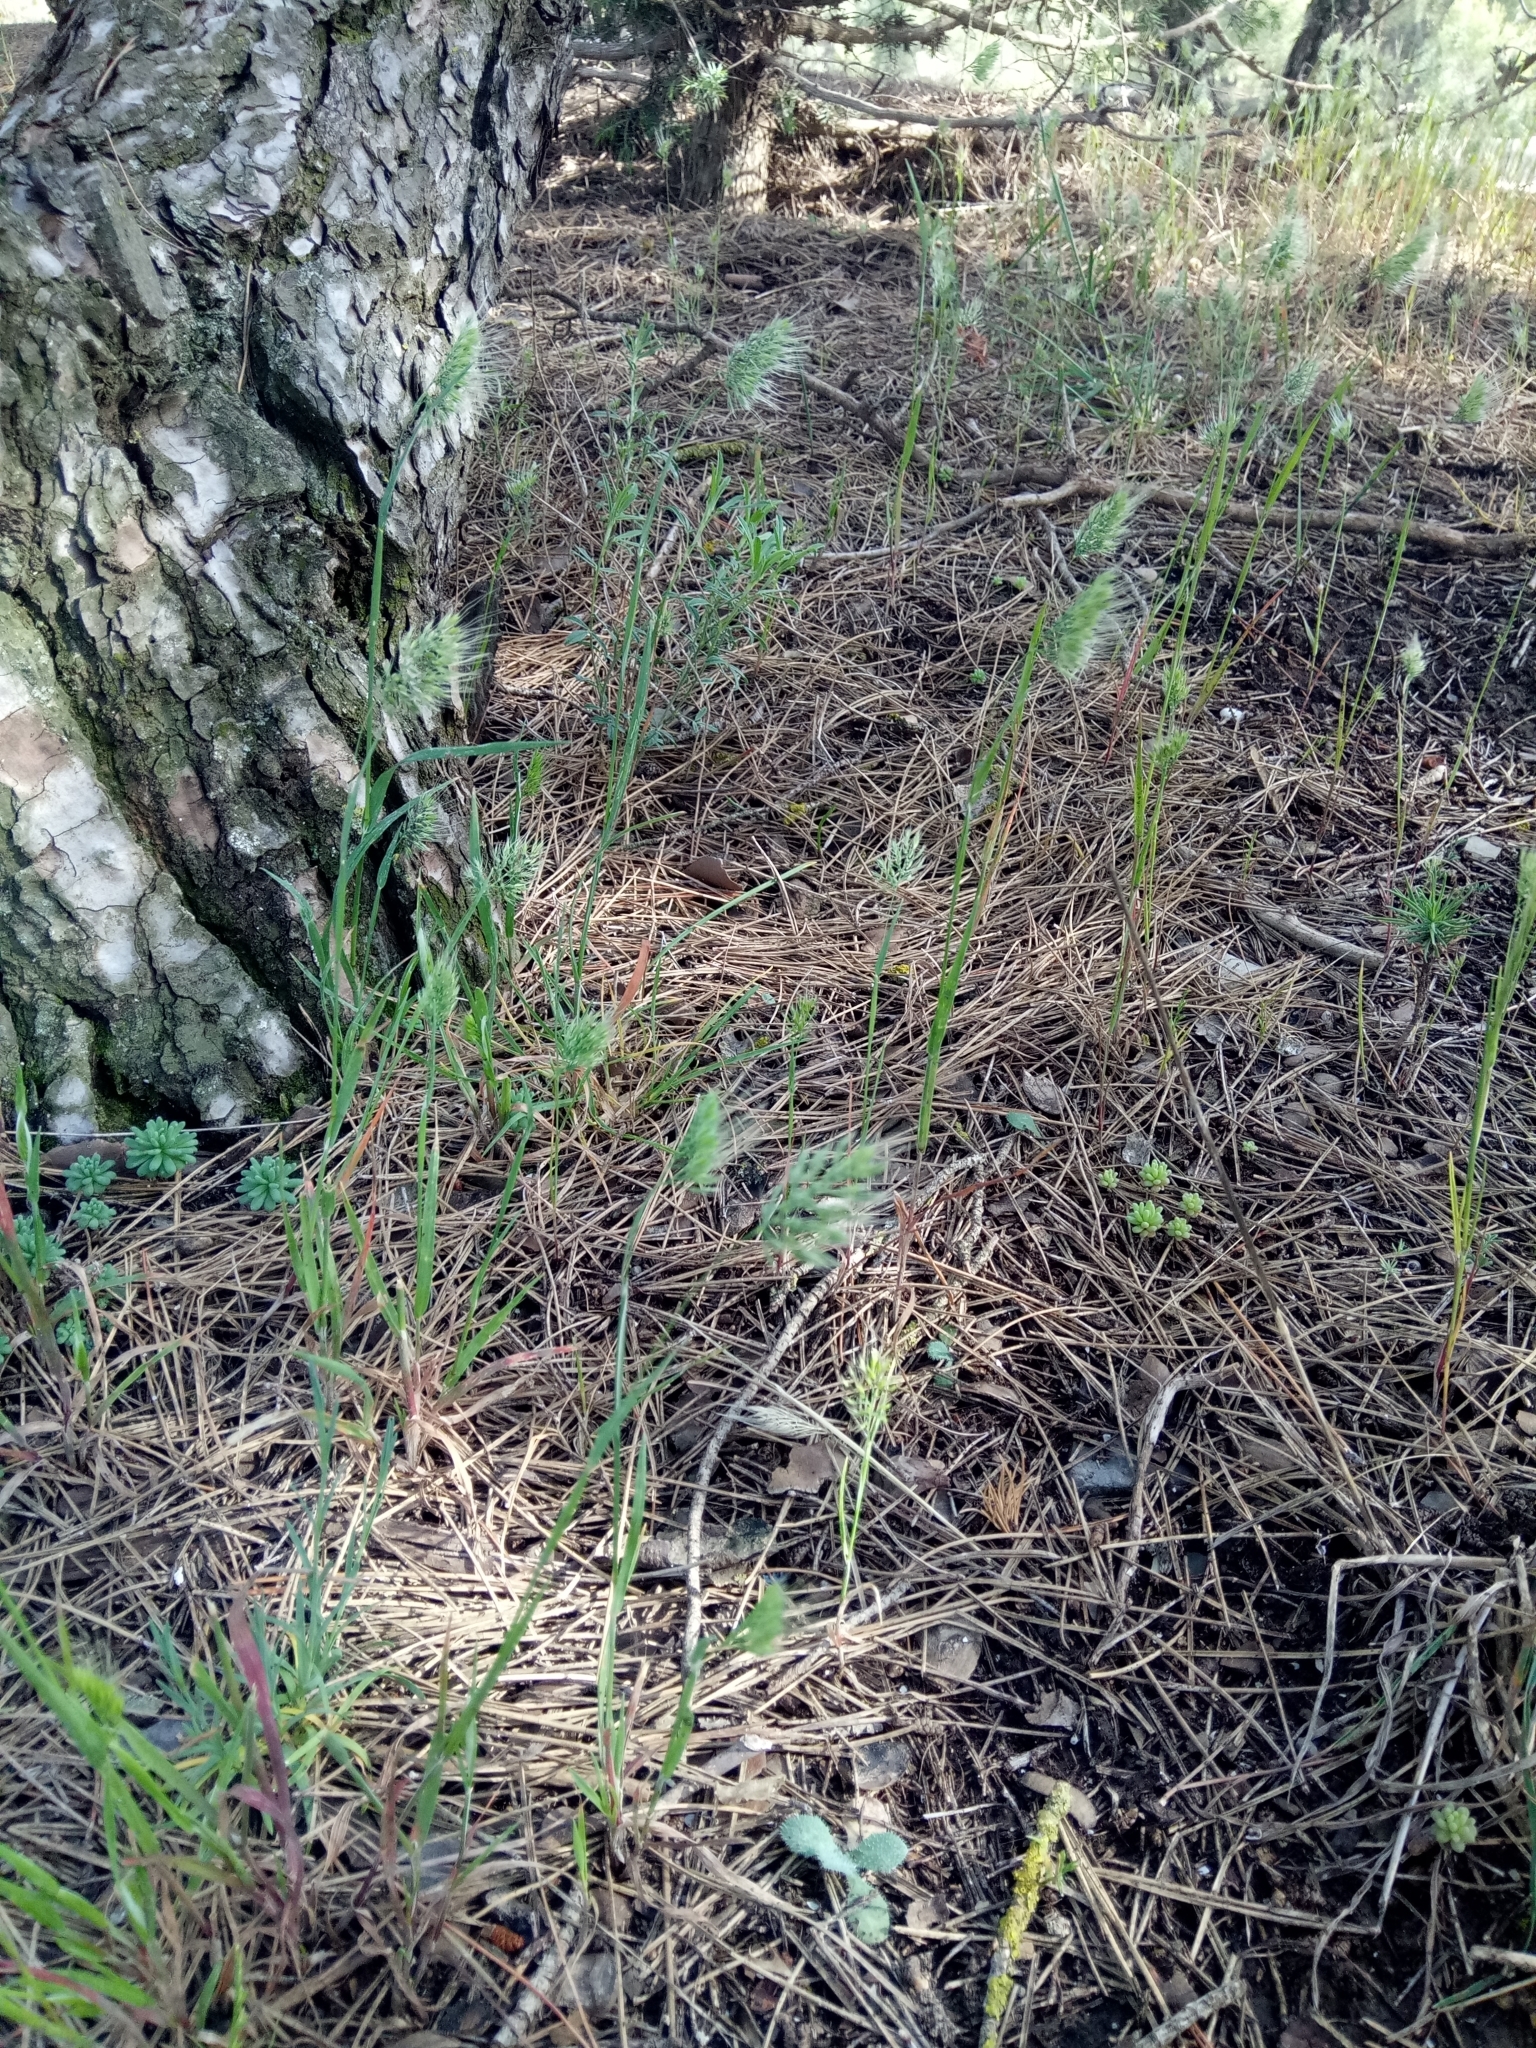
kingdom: Plantae
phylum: Tracheophyta
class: Liliopsida
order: Poales
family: Poaceae
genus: Cynosurus
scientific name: Cynosurus effusus
